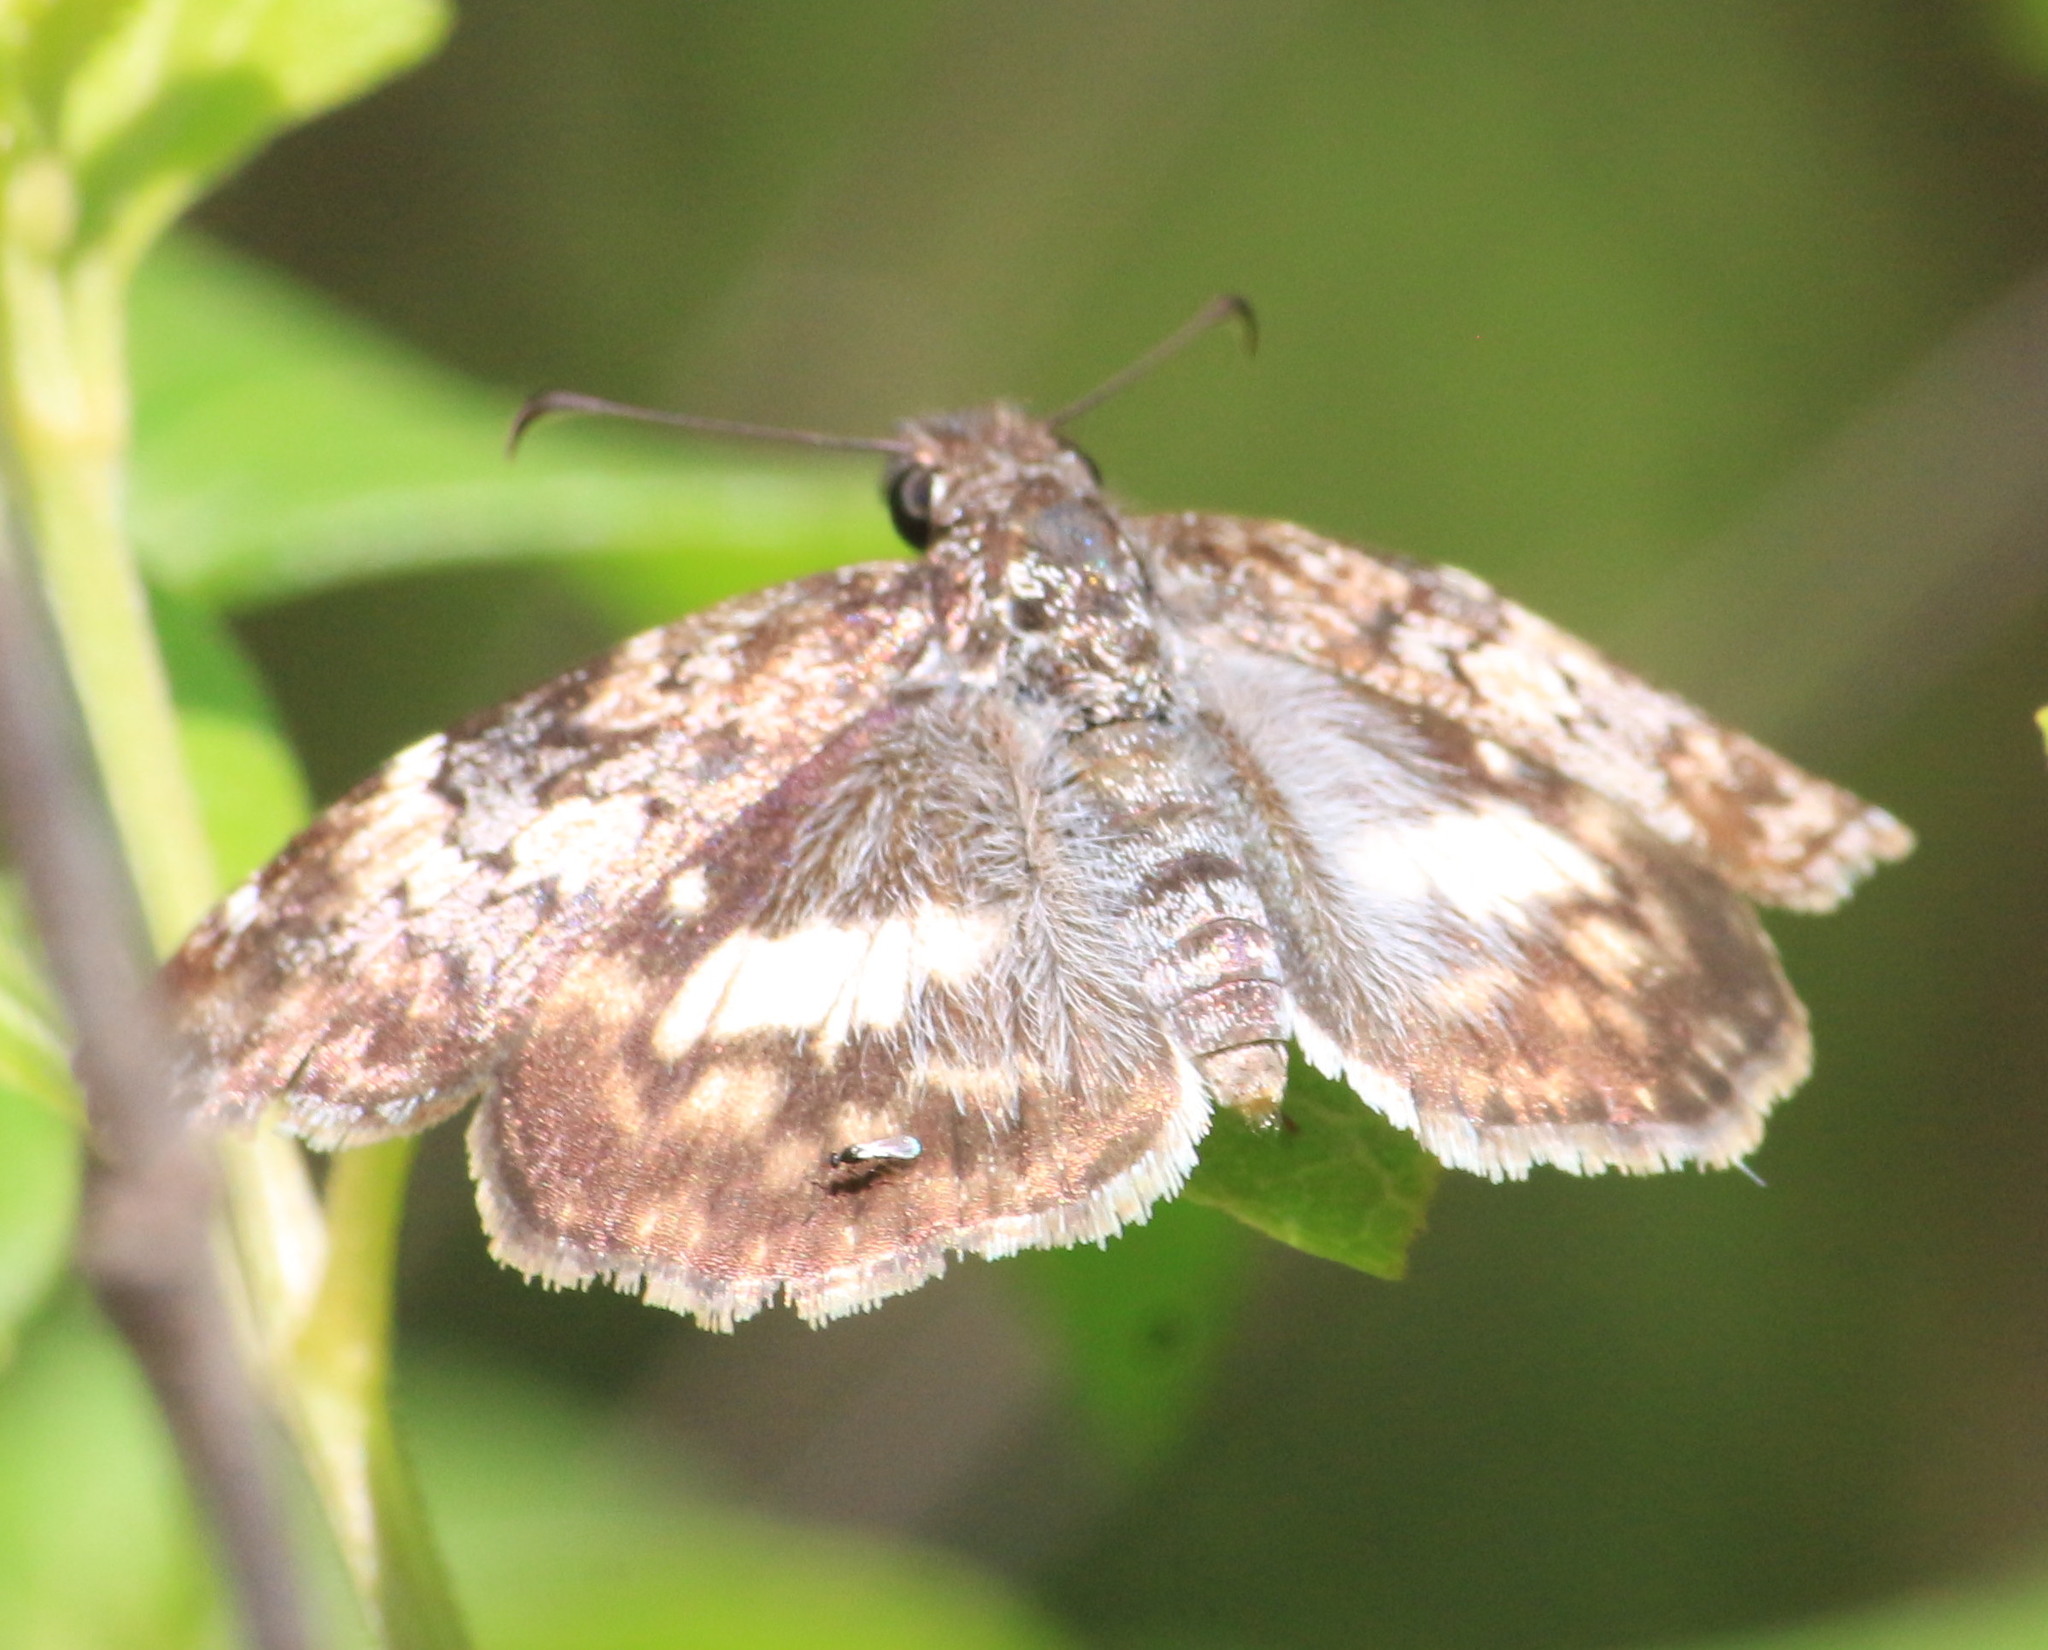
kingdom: Animalia
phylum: Arthropoda
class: Insecta
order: Lepidoptera
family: Hesperiidae
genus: Chiothion
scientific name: Chiothion georgina
